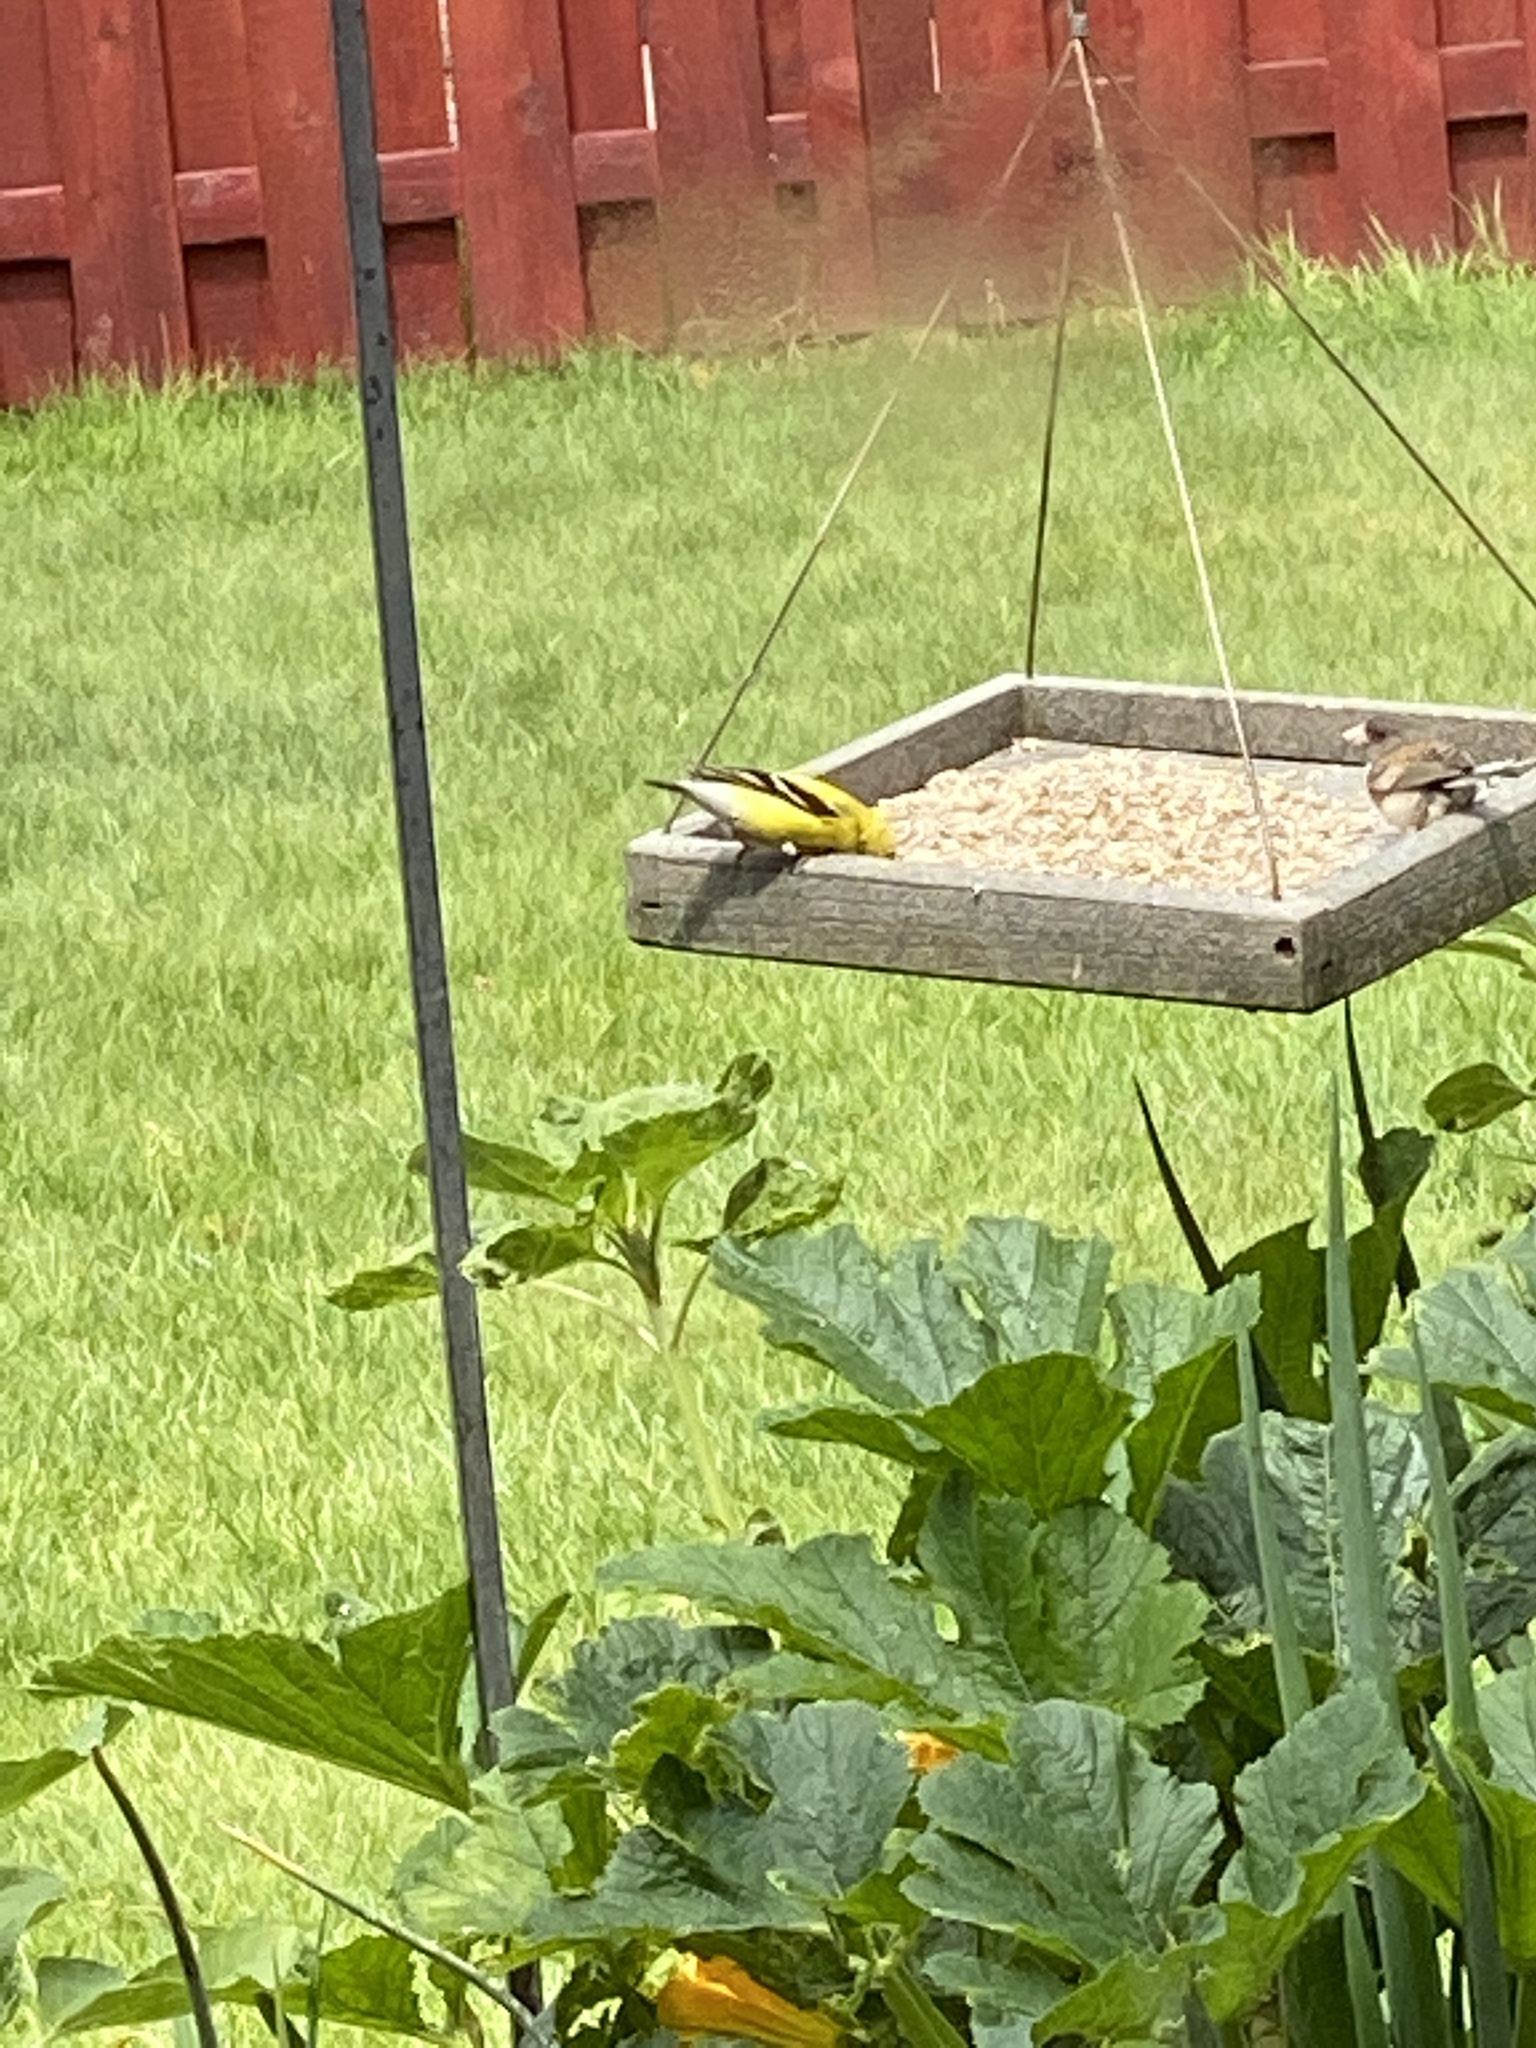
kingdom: Animalia
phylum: Chordata
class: Aves
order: Passeriformes
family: Fringillidae
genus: Spinus
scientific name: Spinus tristis
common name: American goldfinch
